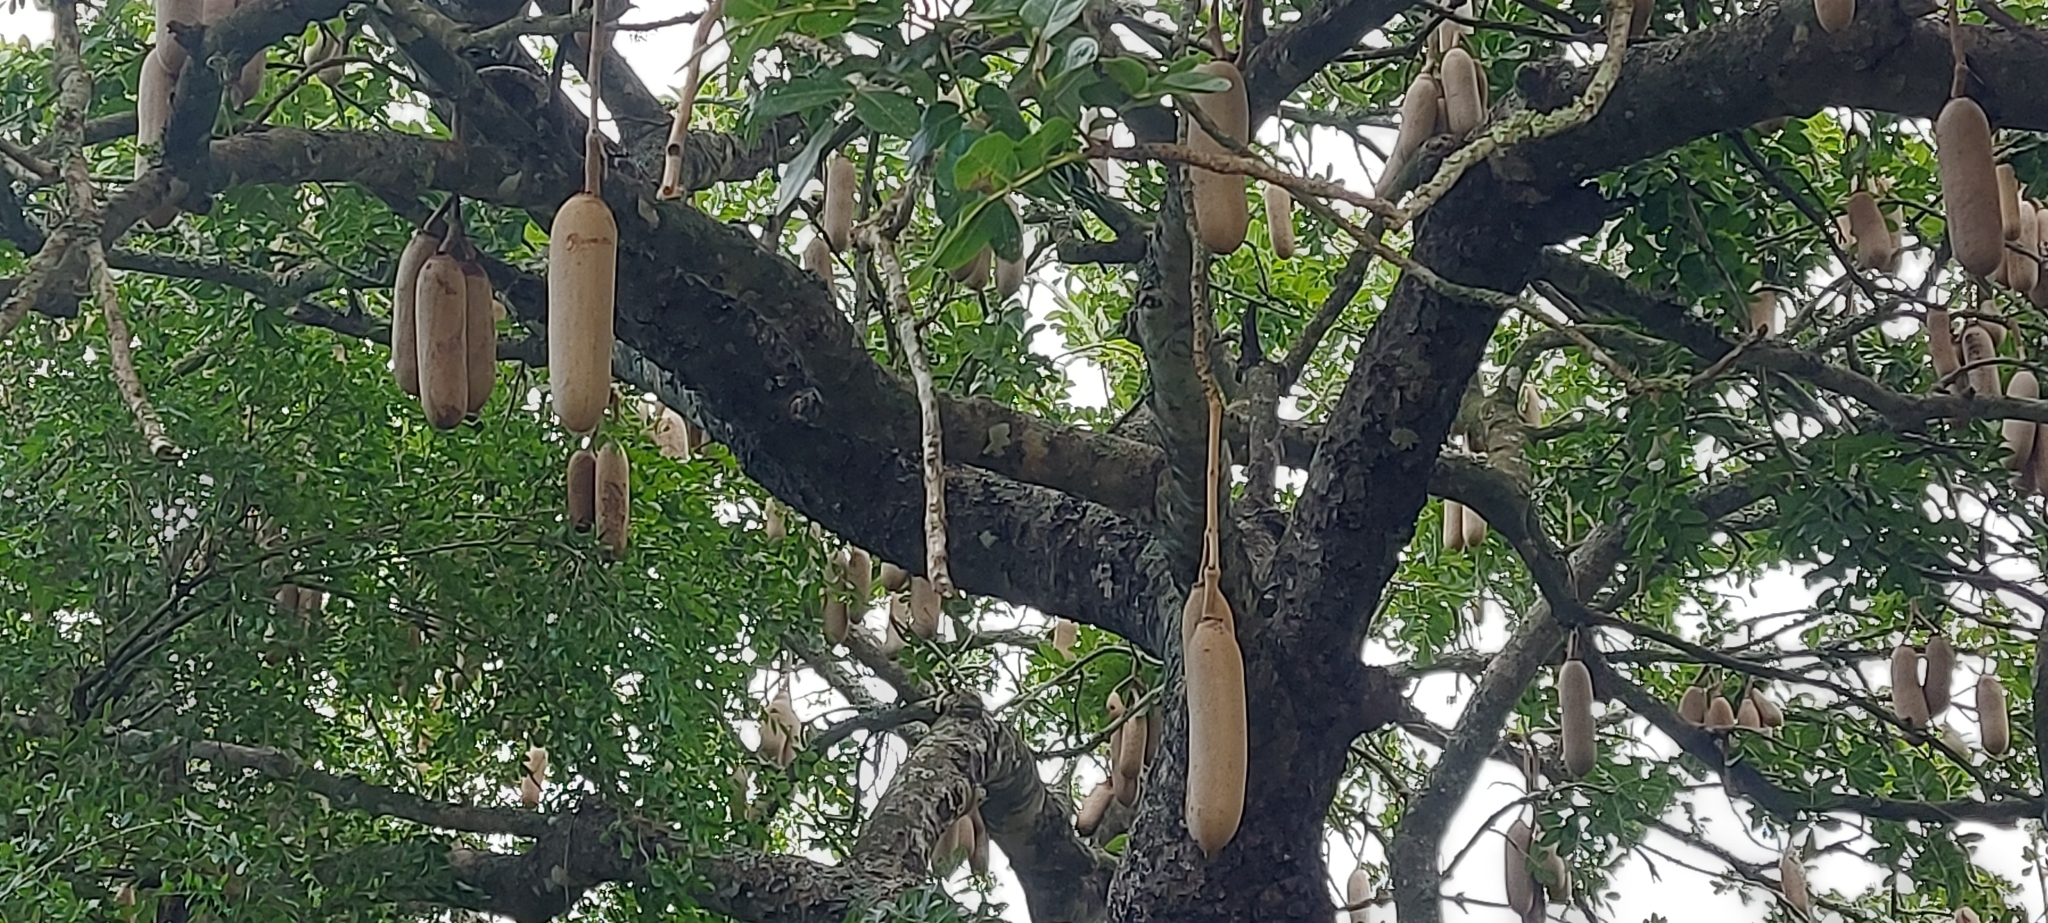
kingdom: Plantae
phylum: Tracheophyta
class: Magnoliopsida
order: Lamiales
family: Bignoniaceae
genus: Kigelia
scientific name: Kigelia africana
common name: Sausage tree
